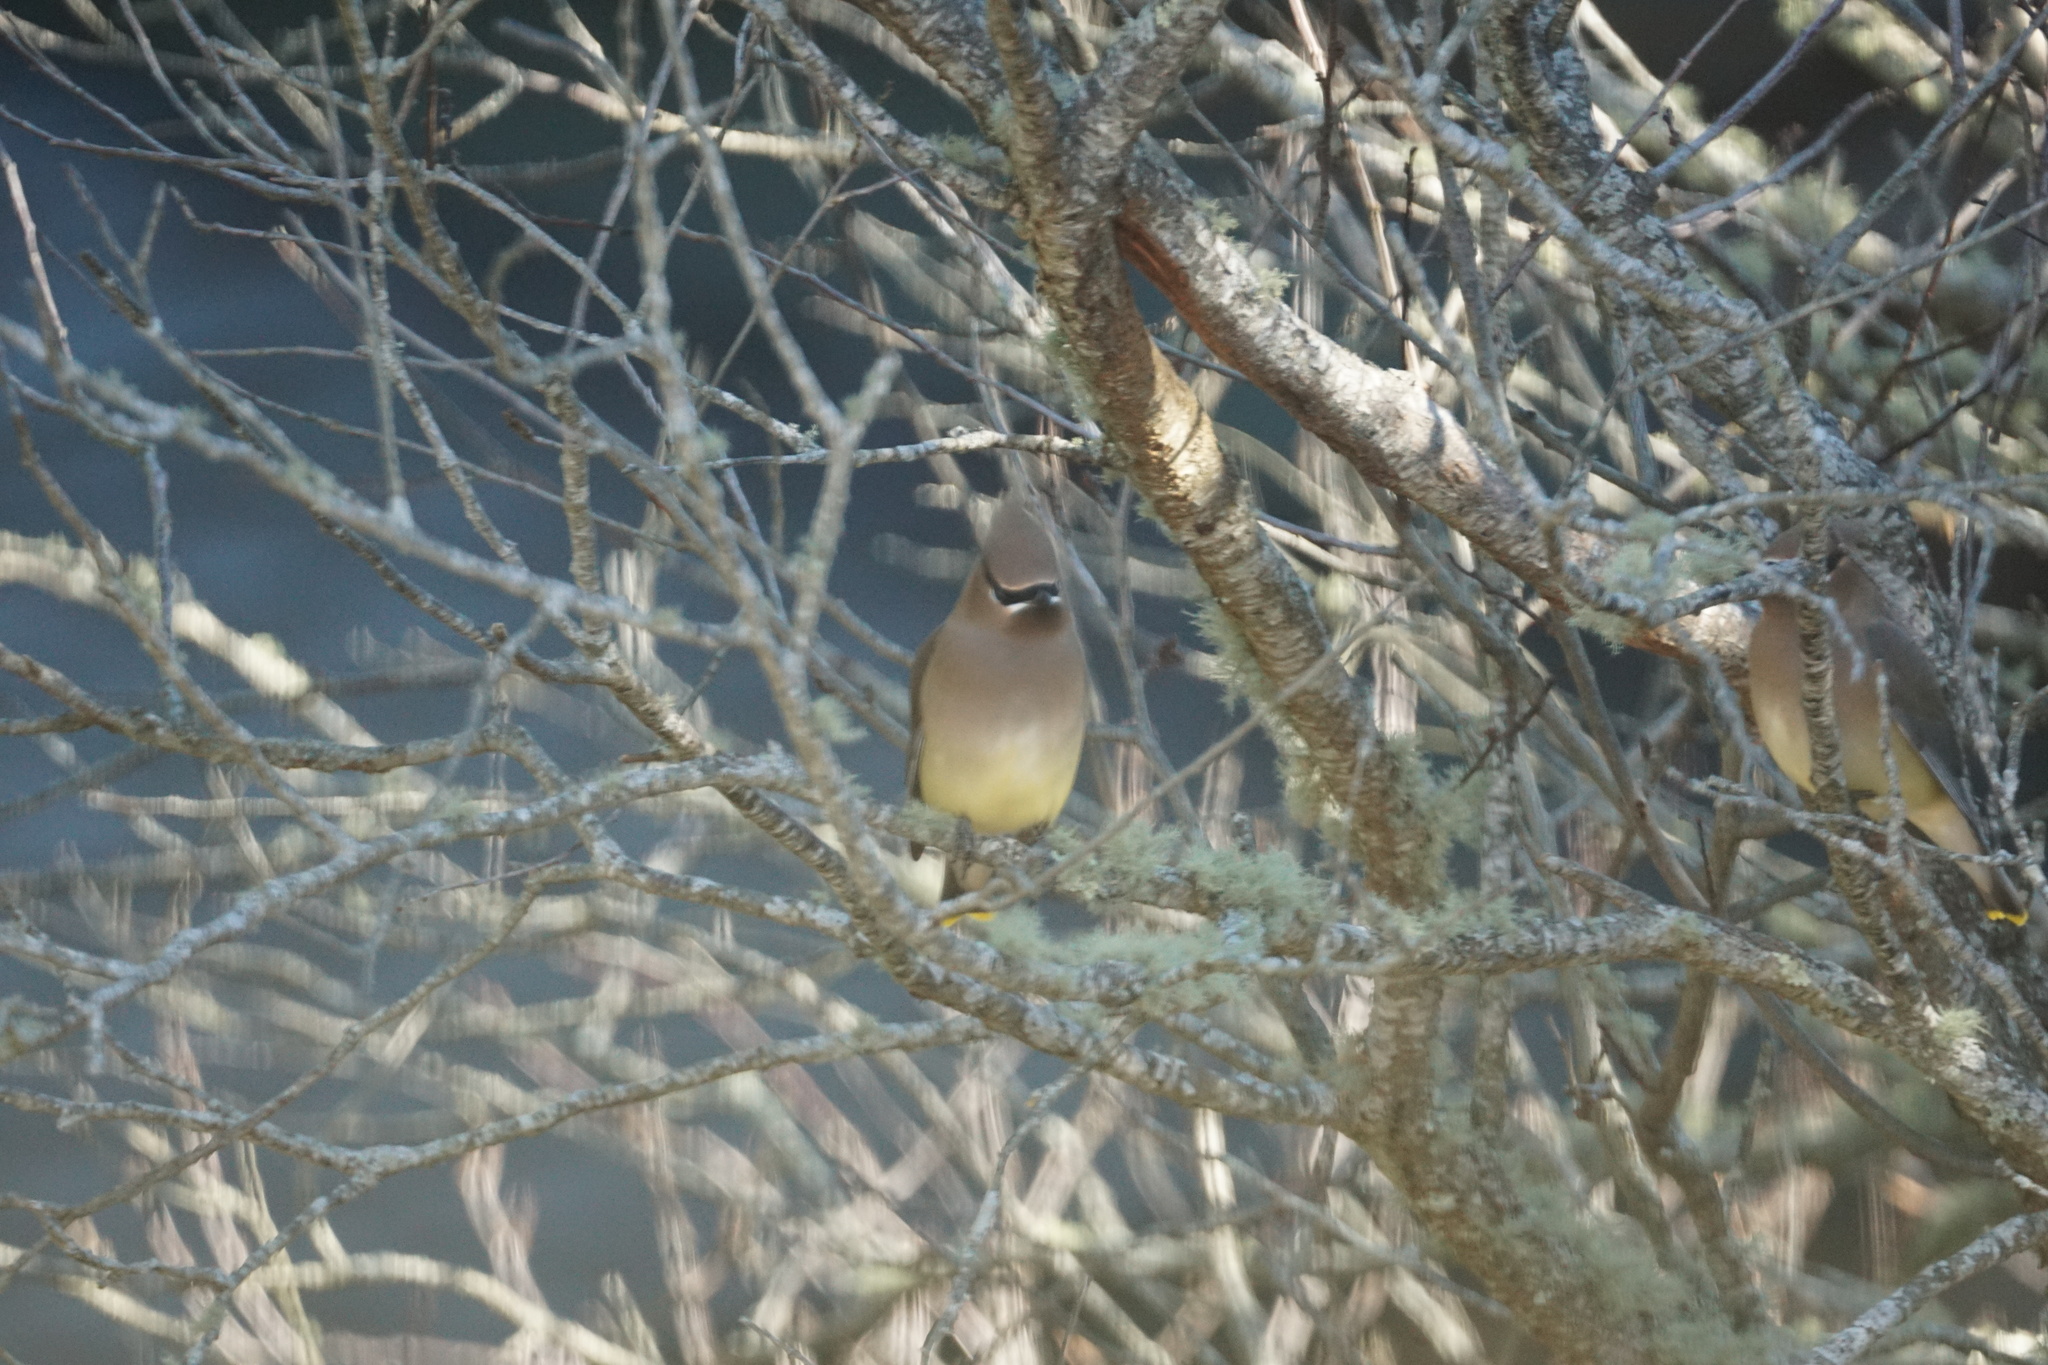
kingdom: Animalia
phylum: Chordata
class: Aves
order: Passeriformes
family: Bombycillidae
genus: Bombycilla
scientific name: Bombycilla cedrorum
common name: Cedar waxwing
